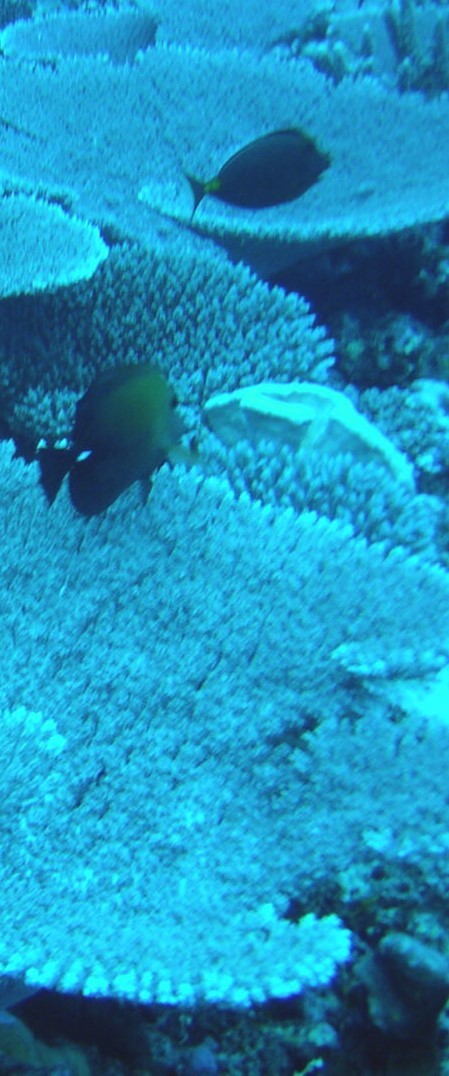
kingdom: Animalia
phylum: Chordata
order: Perciformes
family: Acanthuridae
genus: Zebrasoma
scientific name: Zebrasoma scopas
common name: Twotone tang
